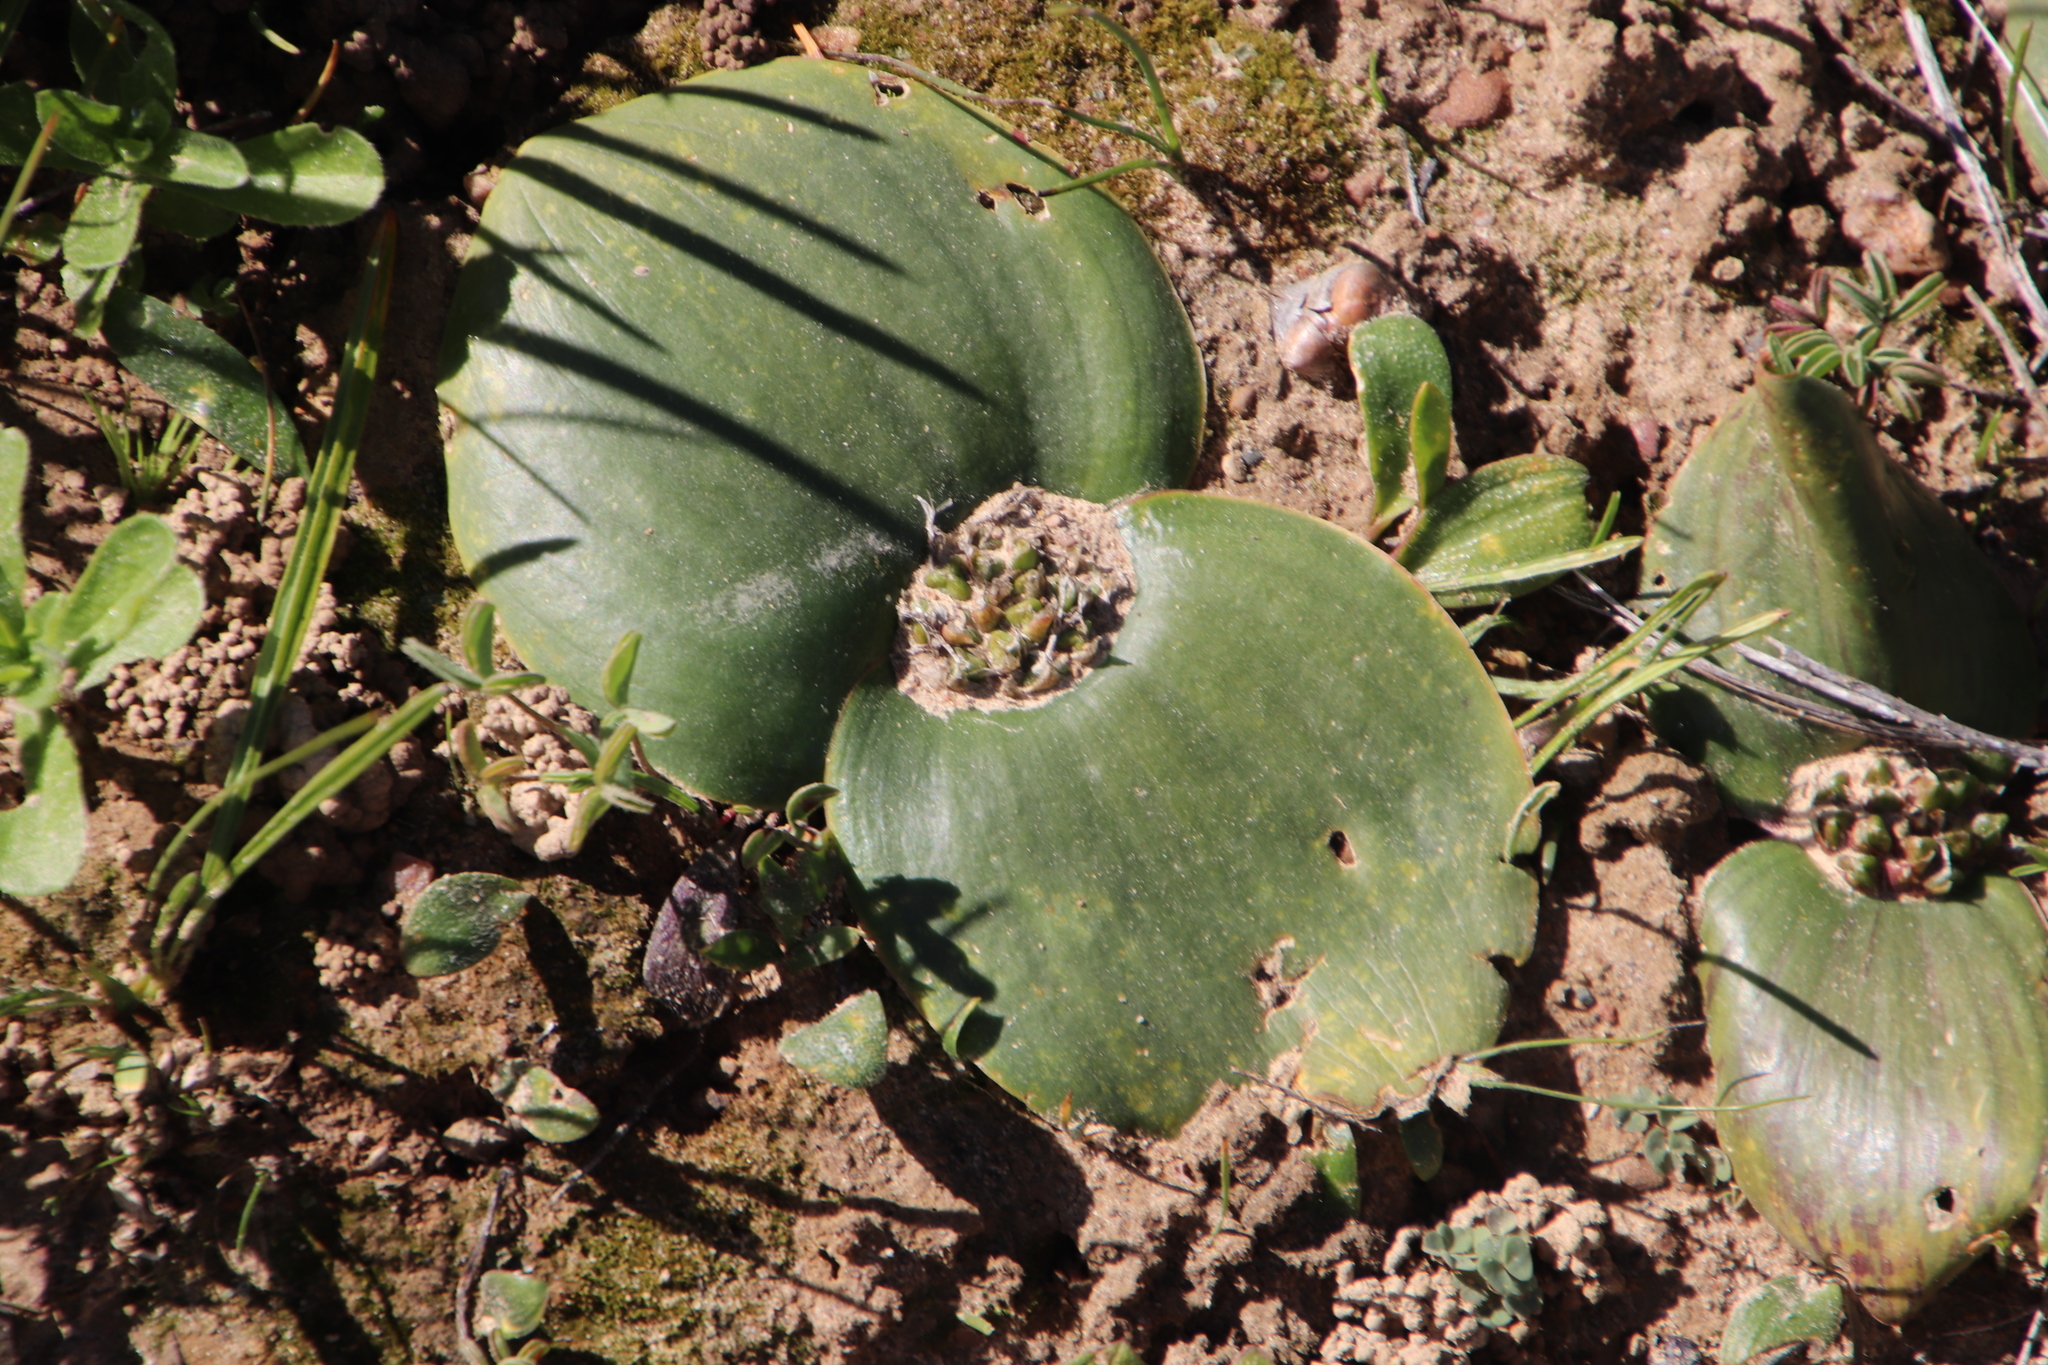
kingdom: Plantae
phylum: Tracheophyta
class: Liliopsida
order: Asparagales
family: Asparagaceae
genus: Massonia
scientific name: Massonia pseudoechinata
